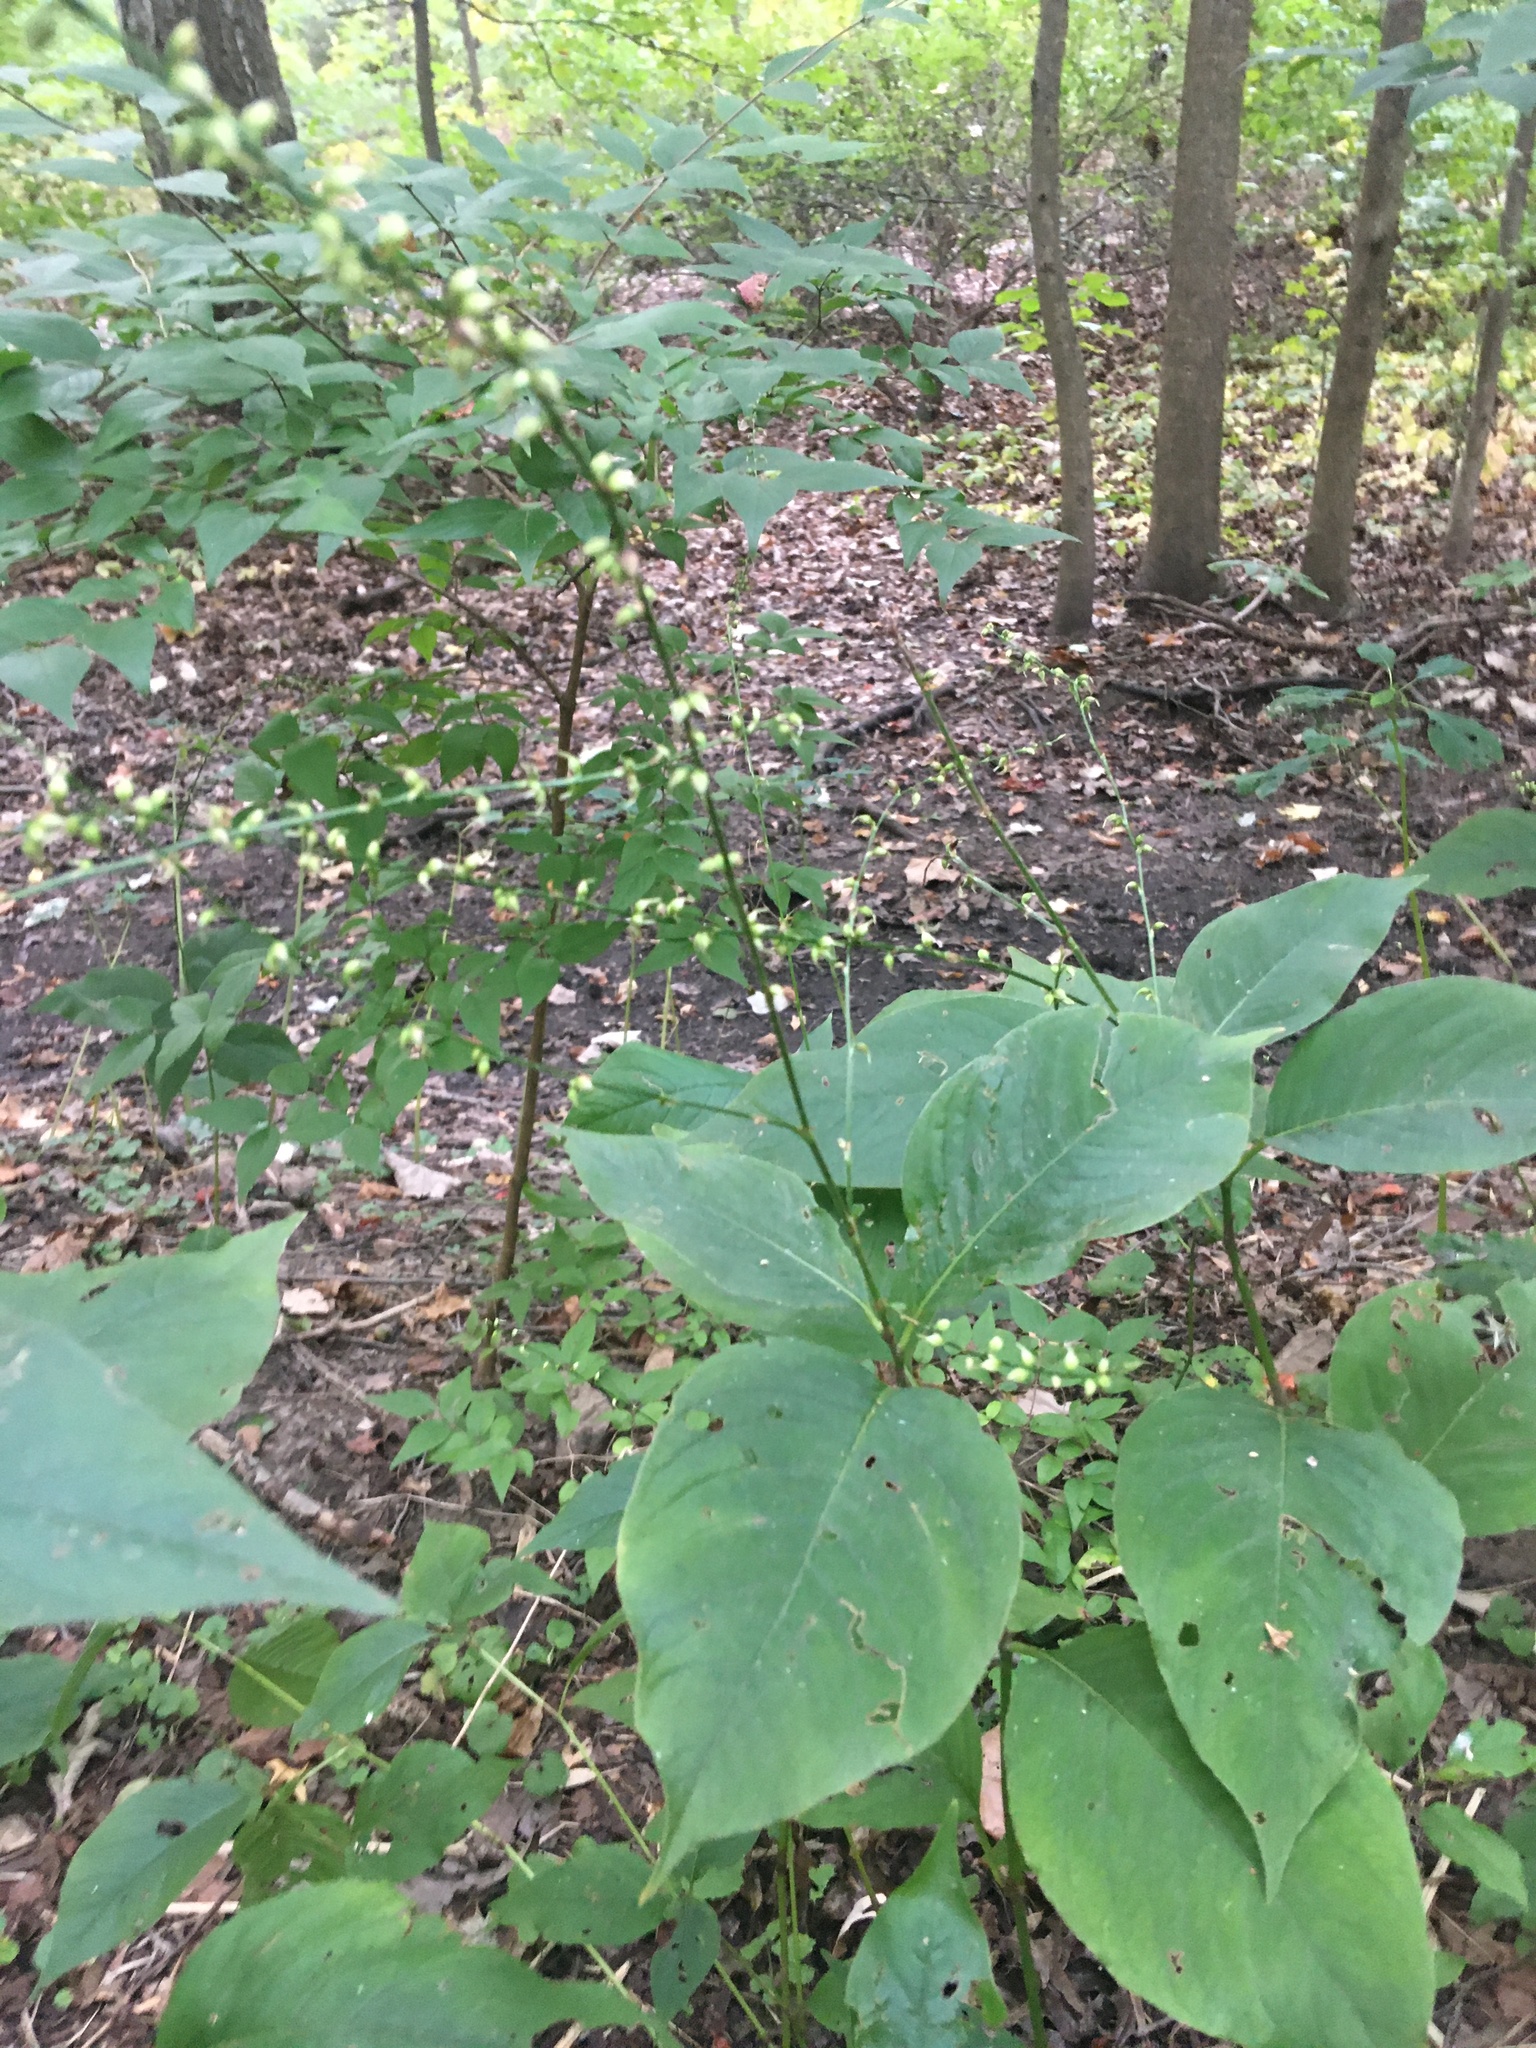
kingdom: Plantae
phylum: Tracheophyta
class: Magnoliopsida
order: Caryophyllales
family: Polygonaceae
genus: Persicaria
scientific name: Persicaria virginiana
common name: Jumpseed
